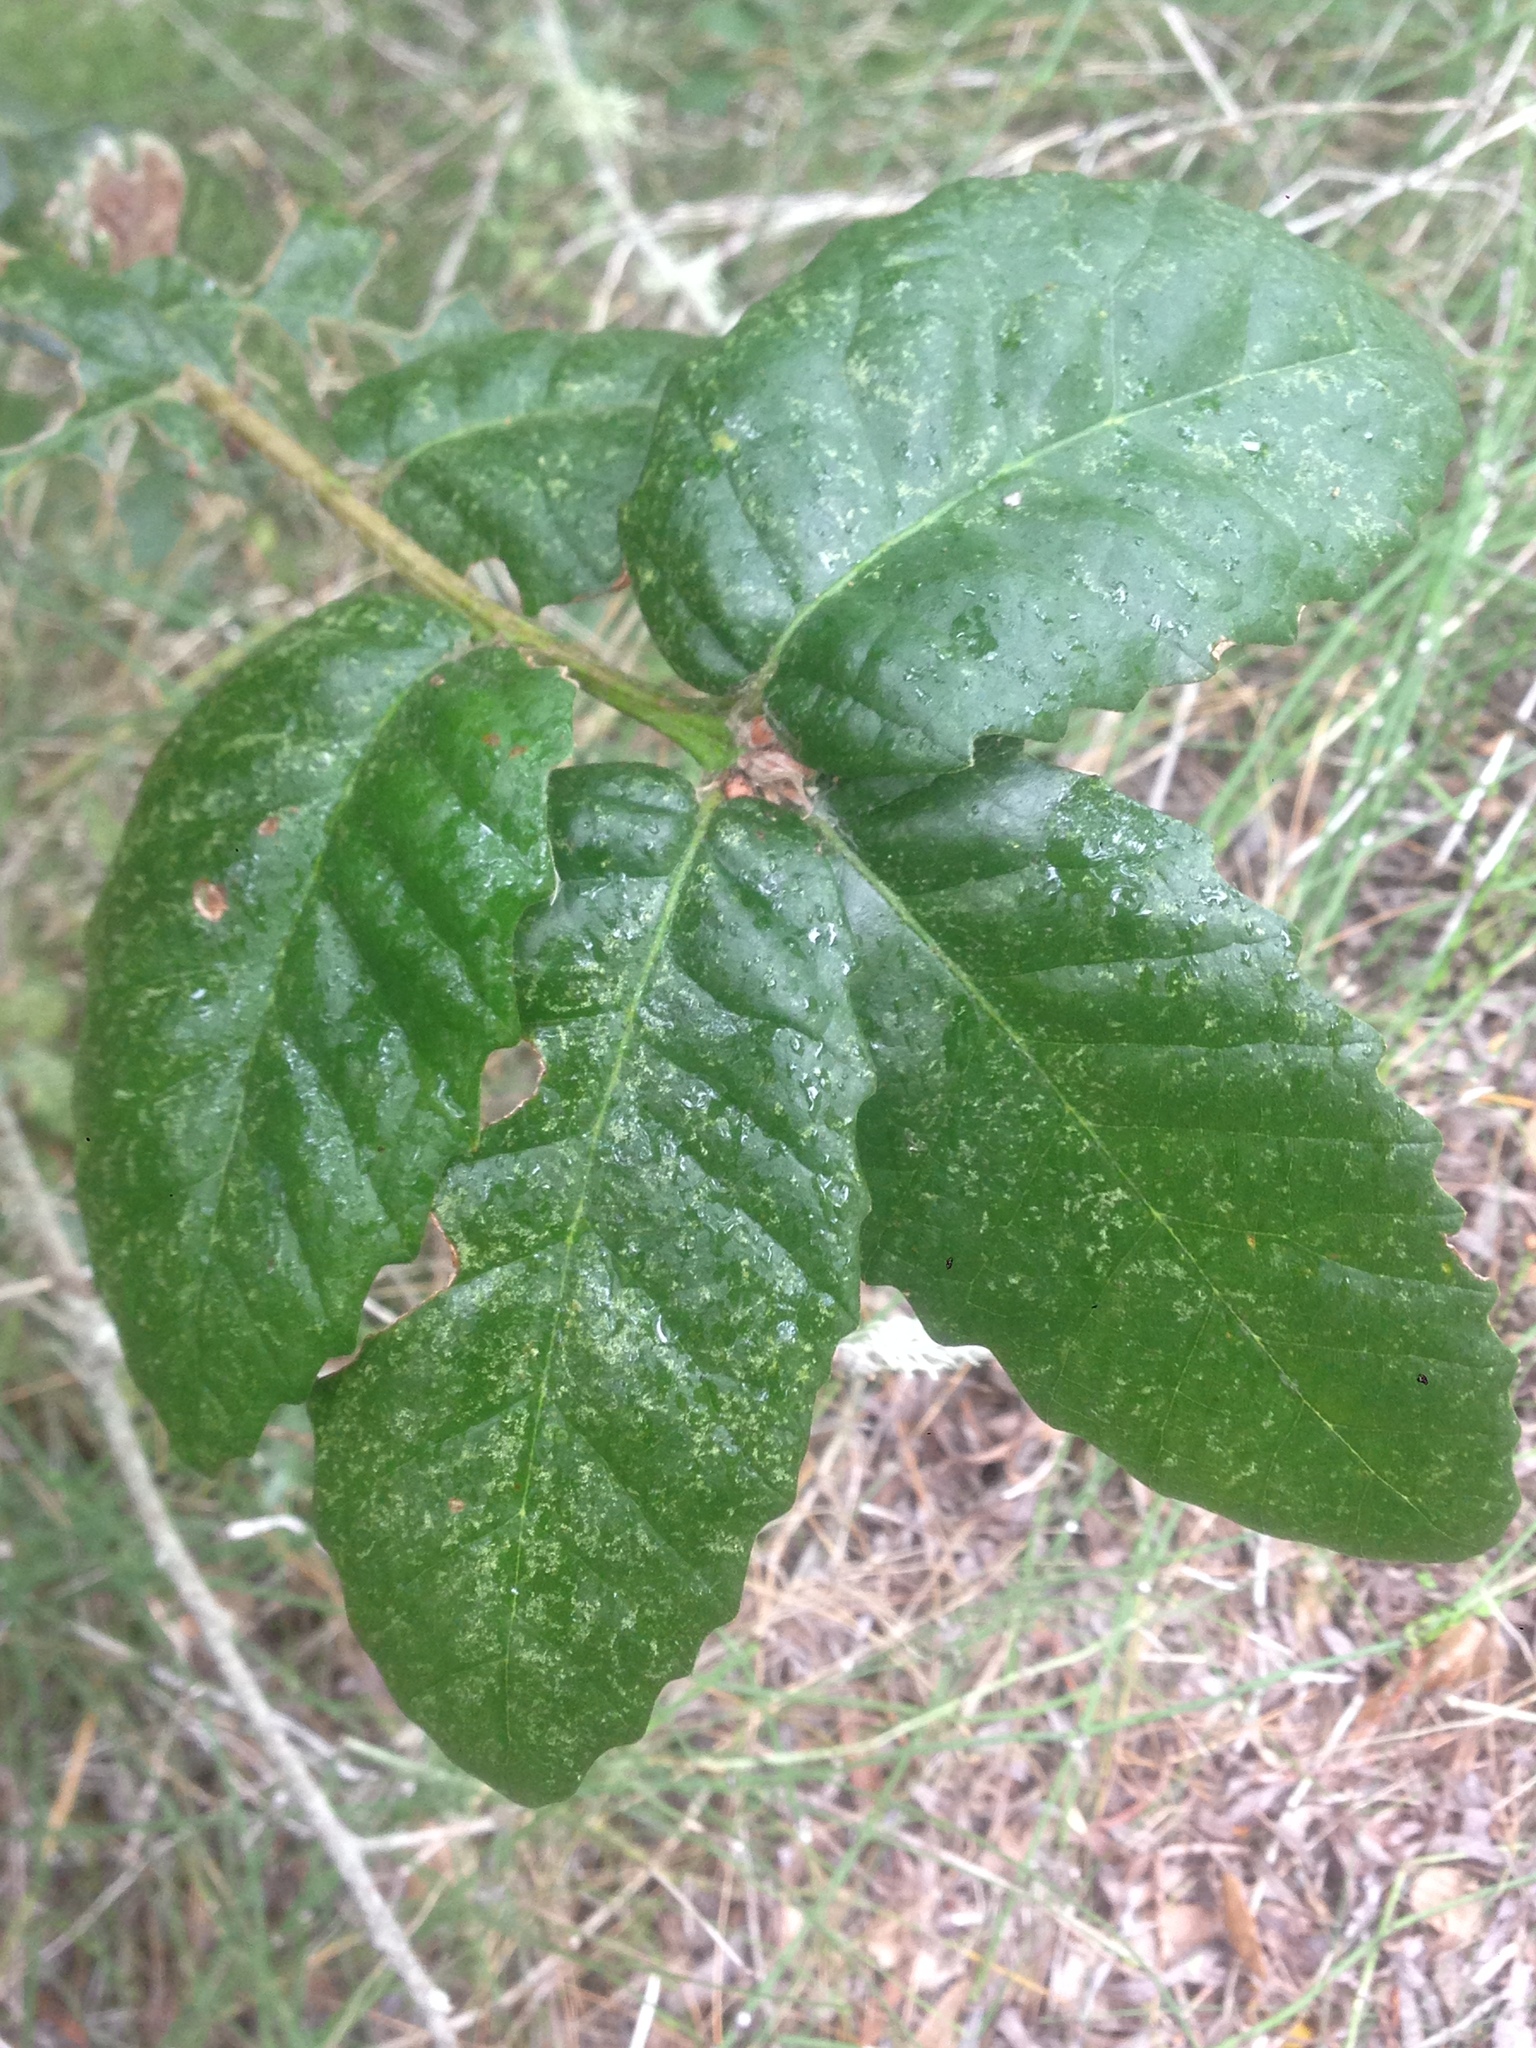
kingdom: Plantae
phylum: Tracheophyta
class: Magnoliopsida
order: Fagales
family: Fagaceae
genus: Quercus
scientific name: Quercus tomentella
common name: Island oak
